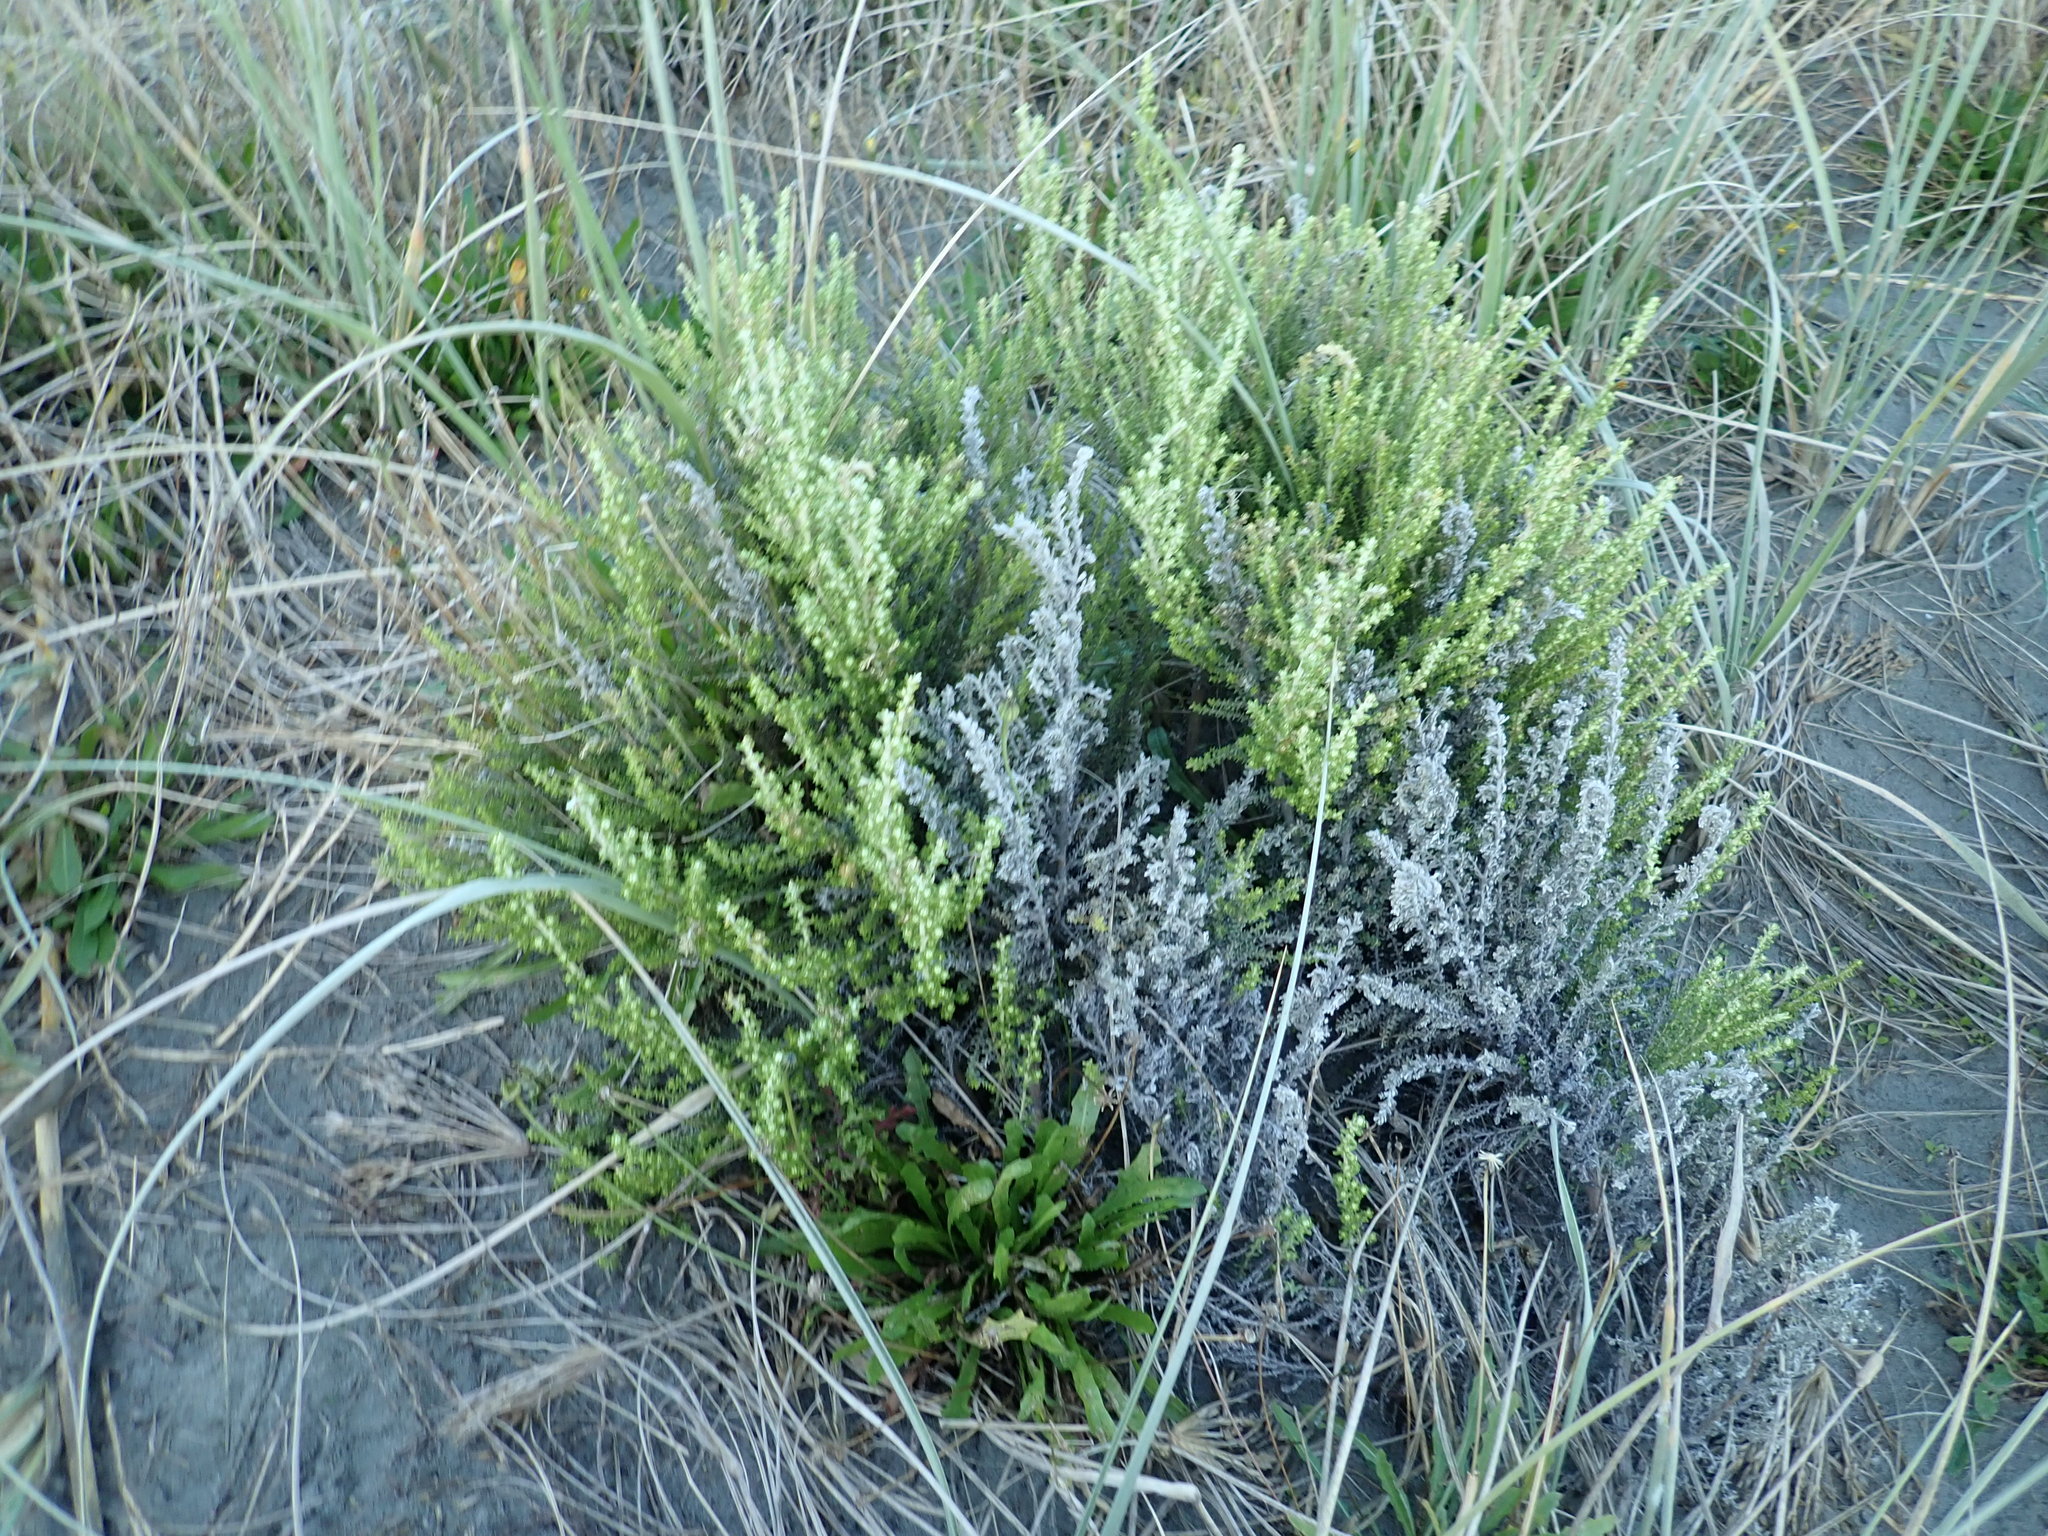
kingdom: Plantae
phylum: Tracheophyta
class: Magnoliopsida
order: Asterales
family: Asteraceae
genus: Ozothamnus
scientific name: Ozothamnus leptophyllus
